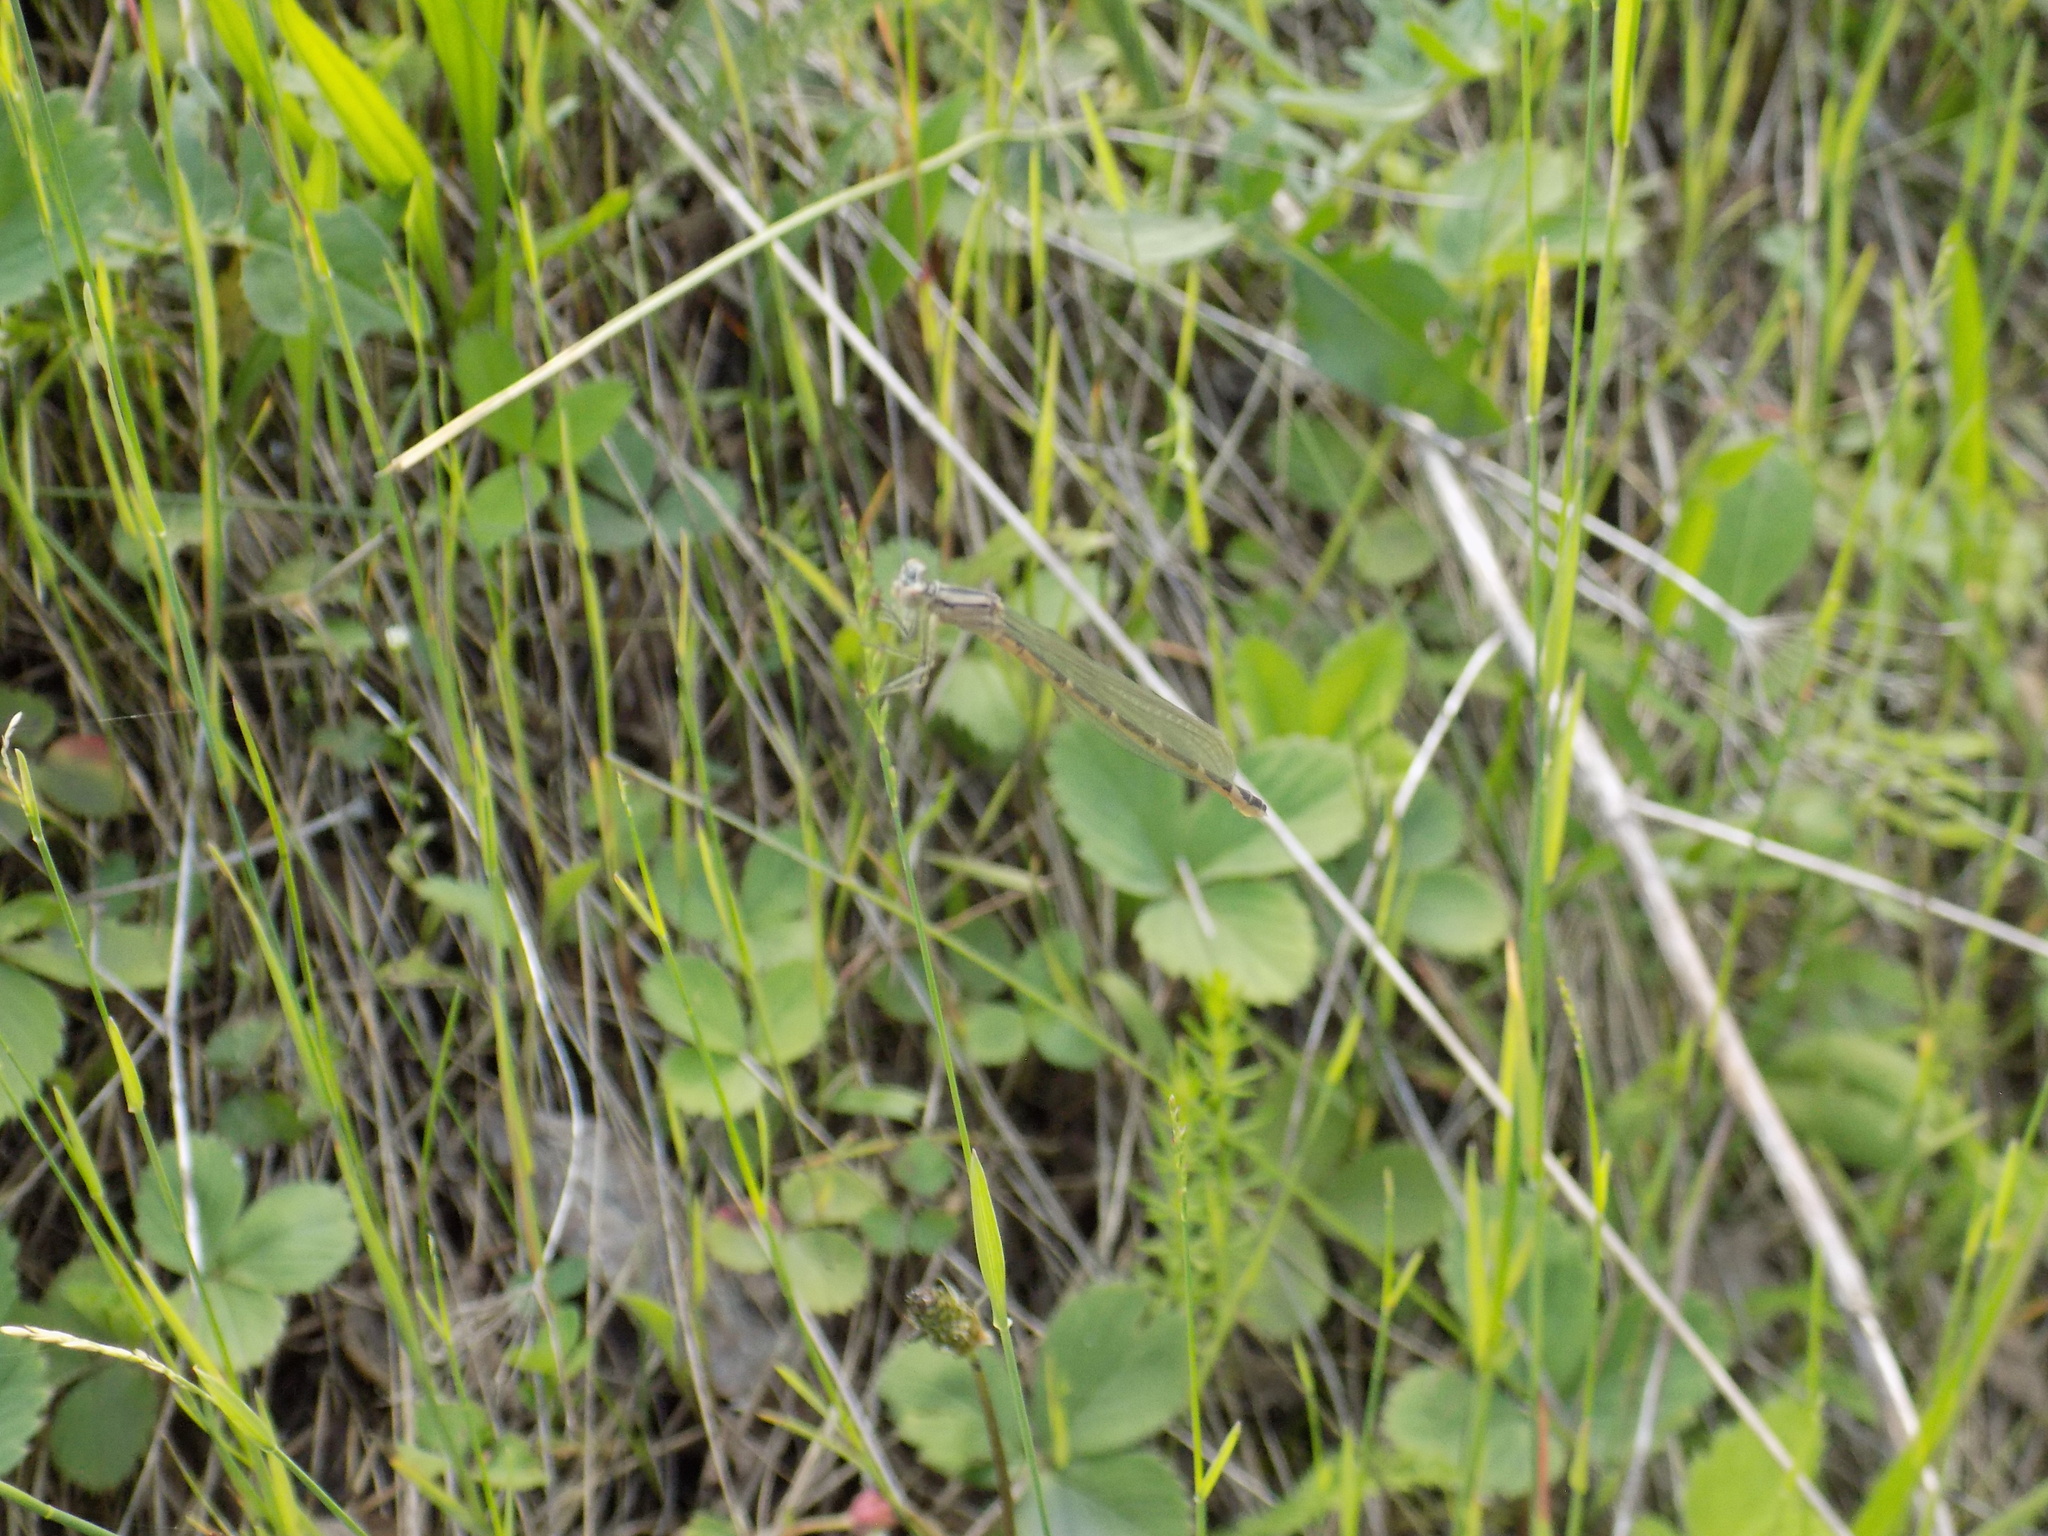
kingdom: Animalia
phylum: Arthropoda
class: Insecta
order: Odonata
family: Coenagrionidae
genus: Enallagma
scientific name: Enallagma cyathigerum
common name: Common blue damselfly
